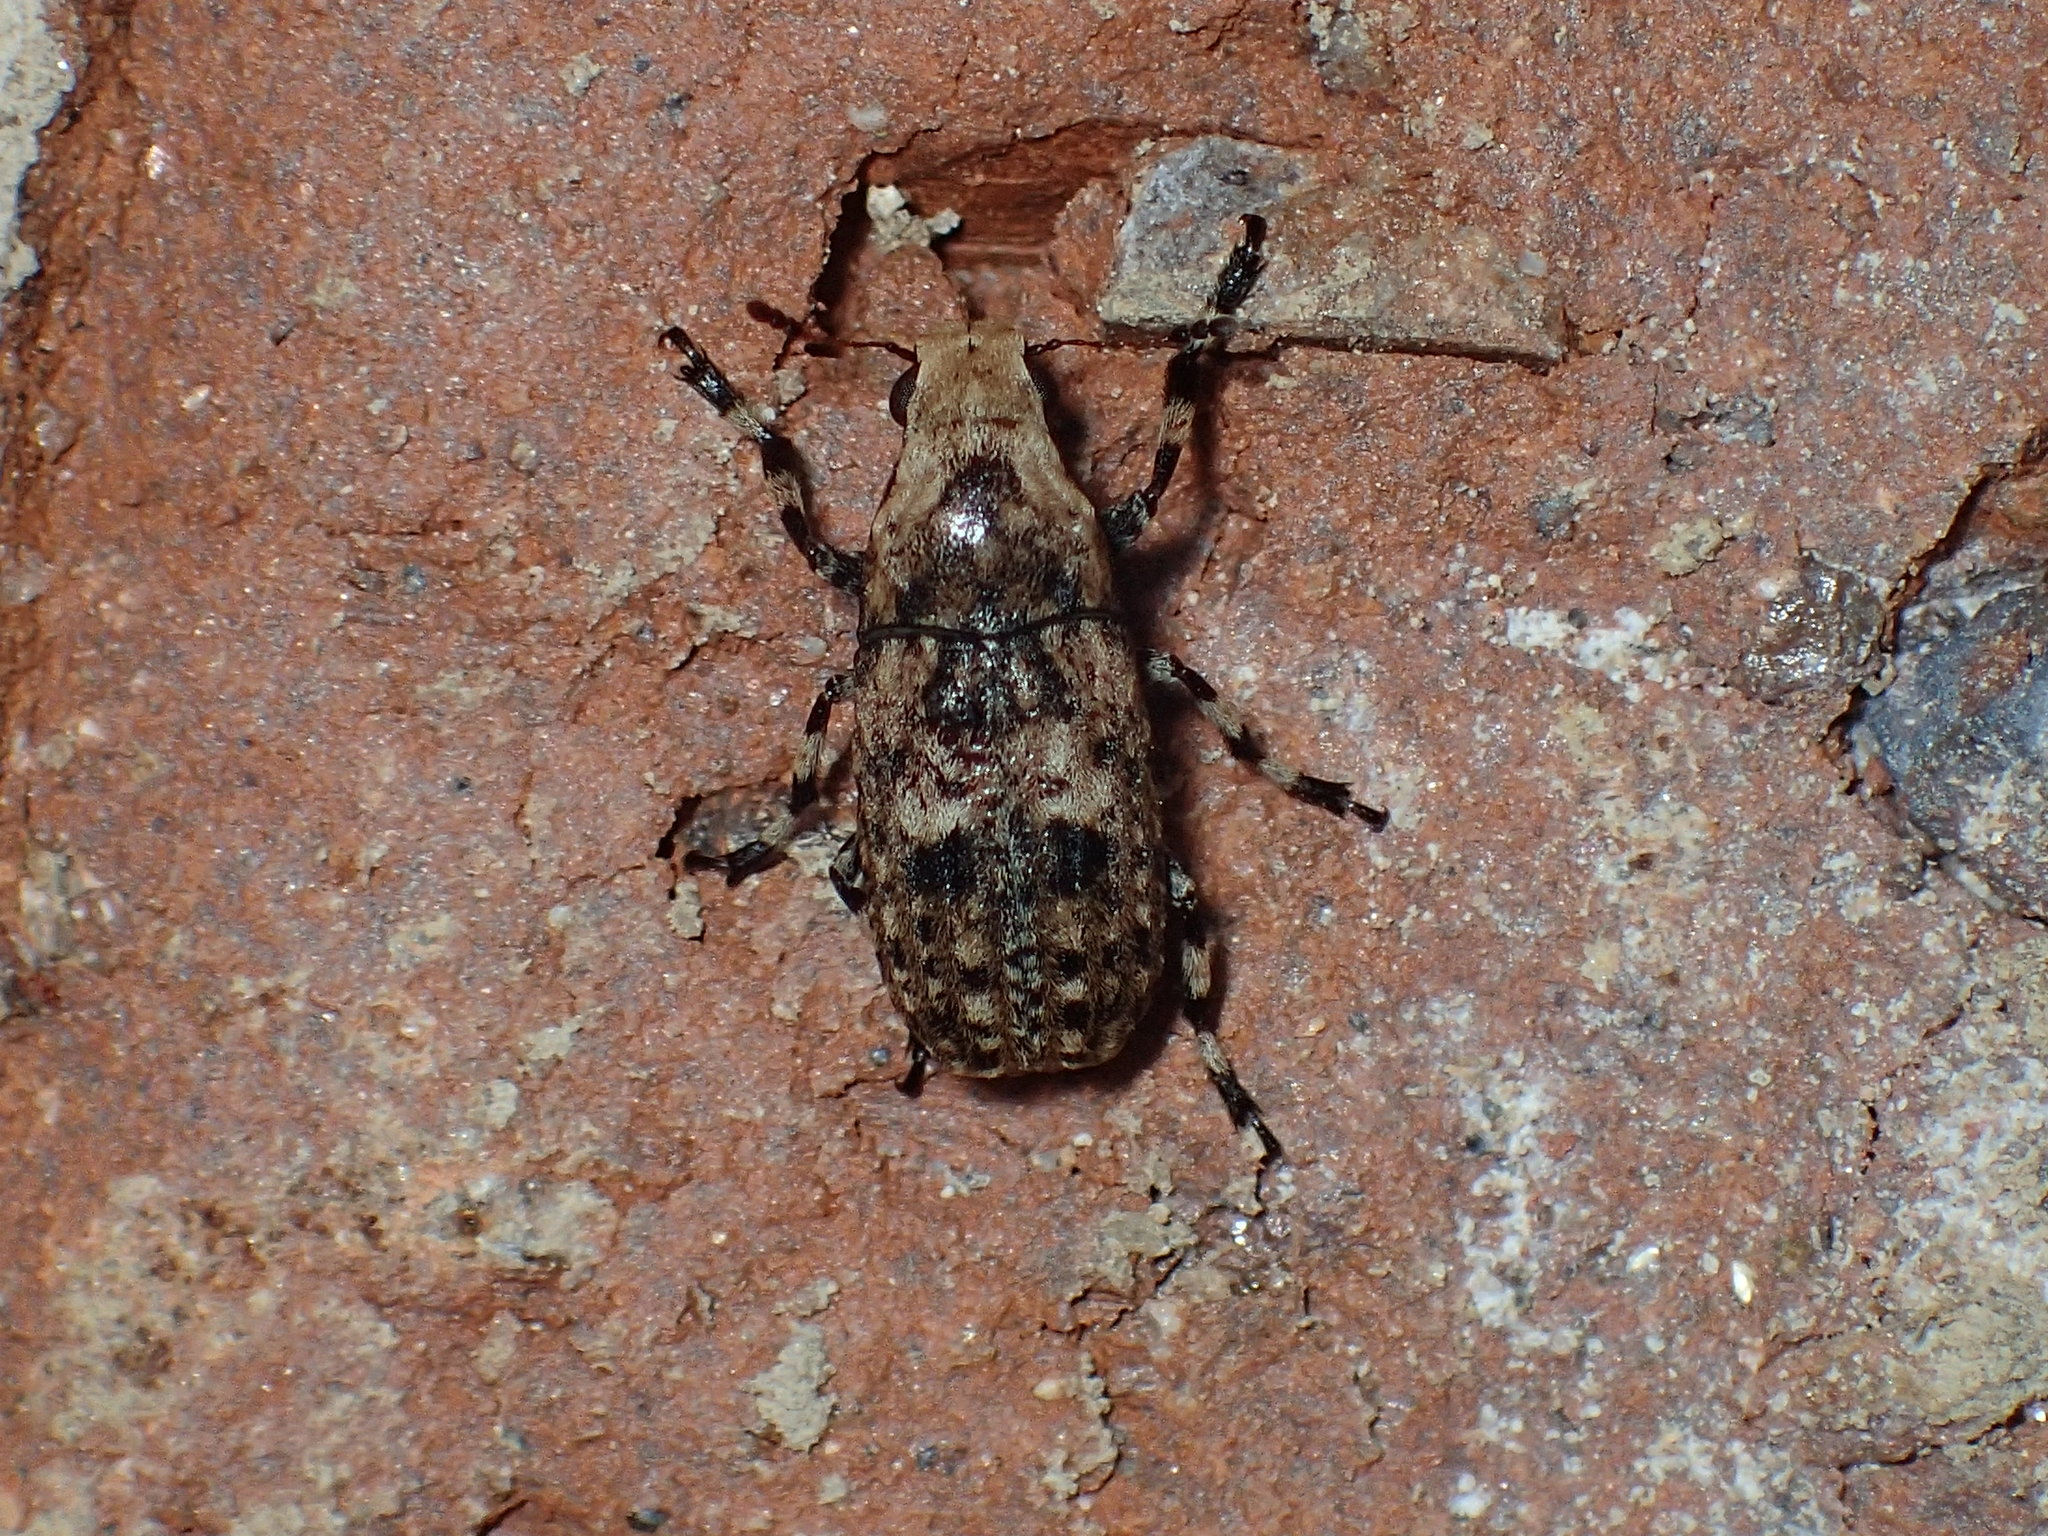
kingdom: Animalia
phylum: Arthropoda
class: Insecta
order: Coleoptera
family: Anthribidae
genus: Euparius
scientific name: Euparius marmoreus
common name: Marbled fungus weevil
